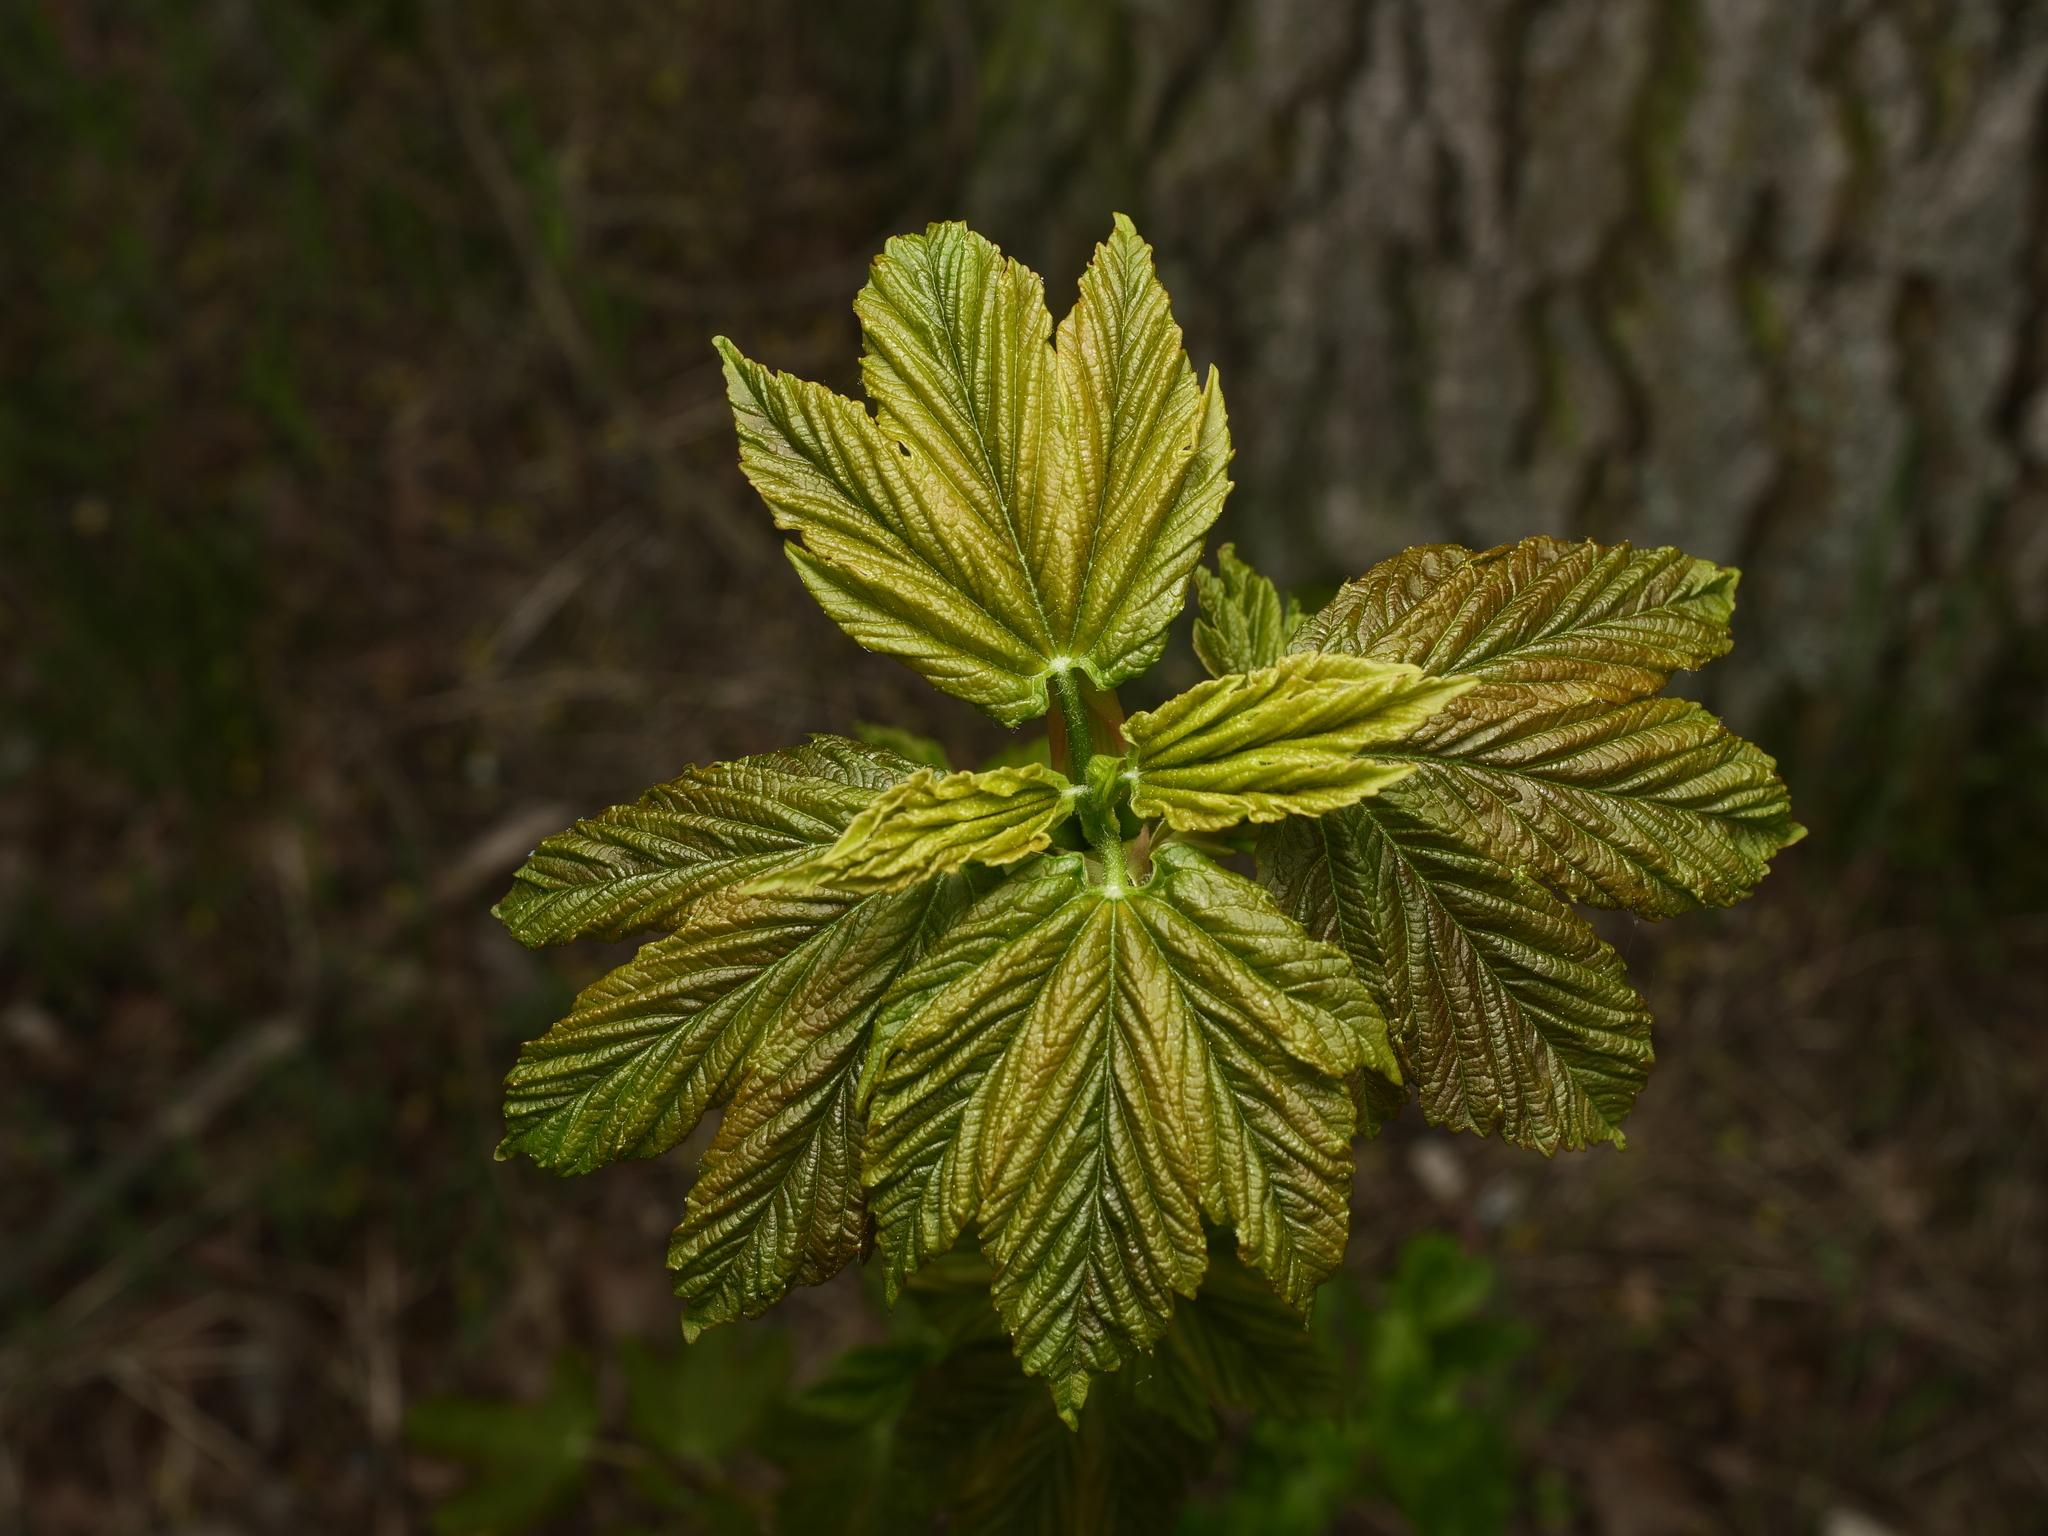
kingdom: Plantae
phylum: Tracheophyta
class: Magnoliopsida
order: Sapindales
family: Sapindaceae
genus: Acer
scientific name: Acer pseudoplatanus
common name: Sycamore
